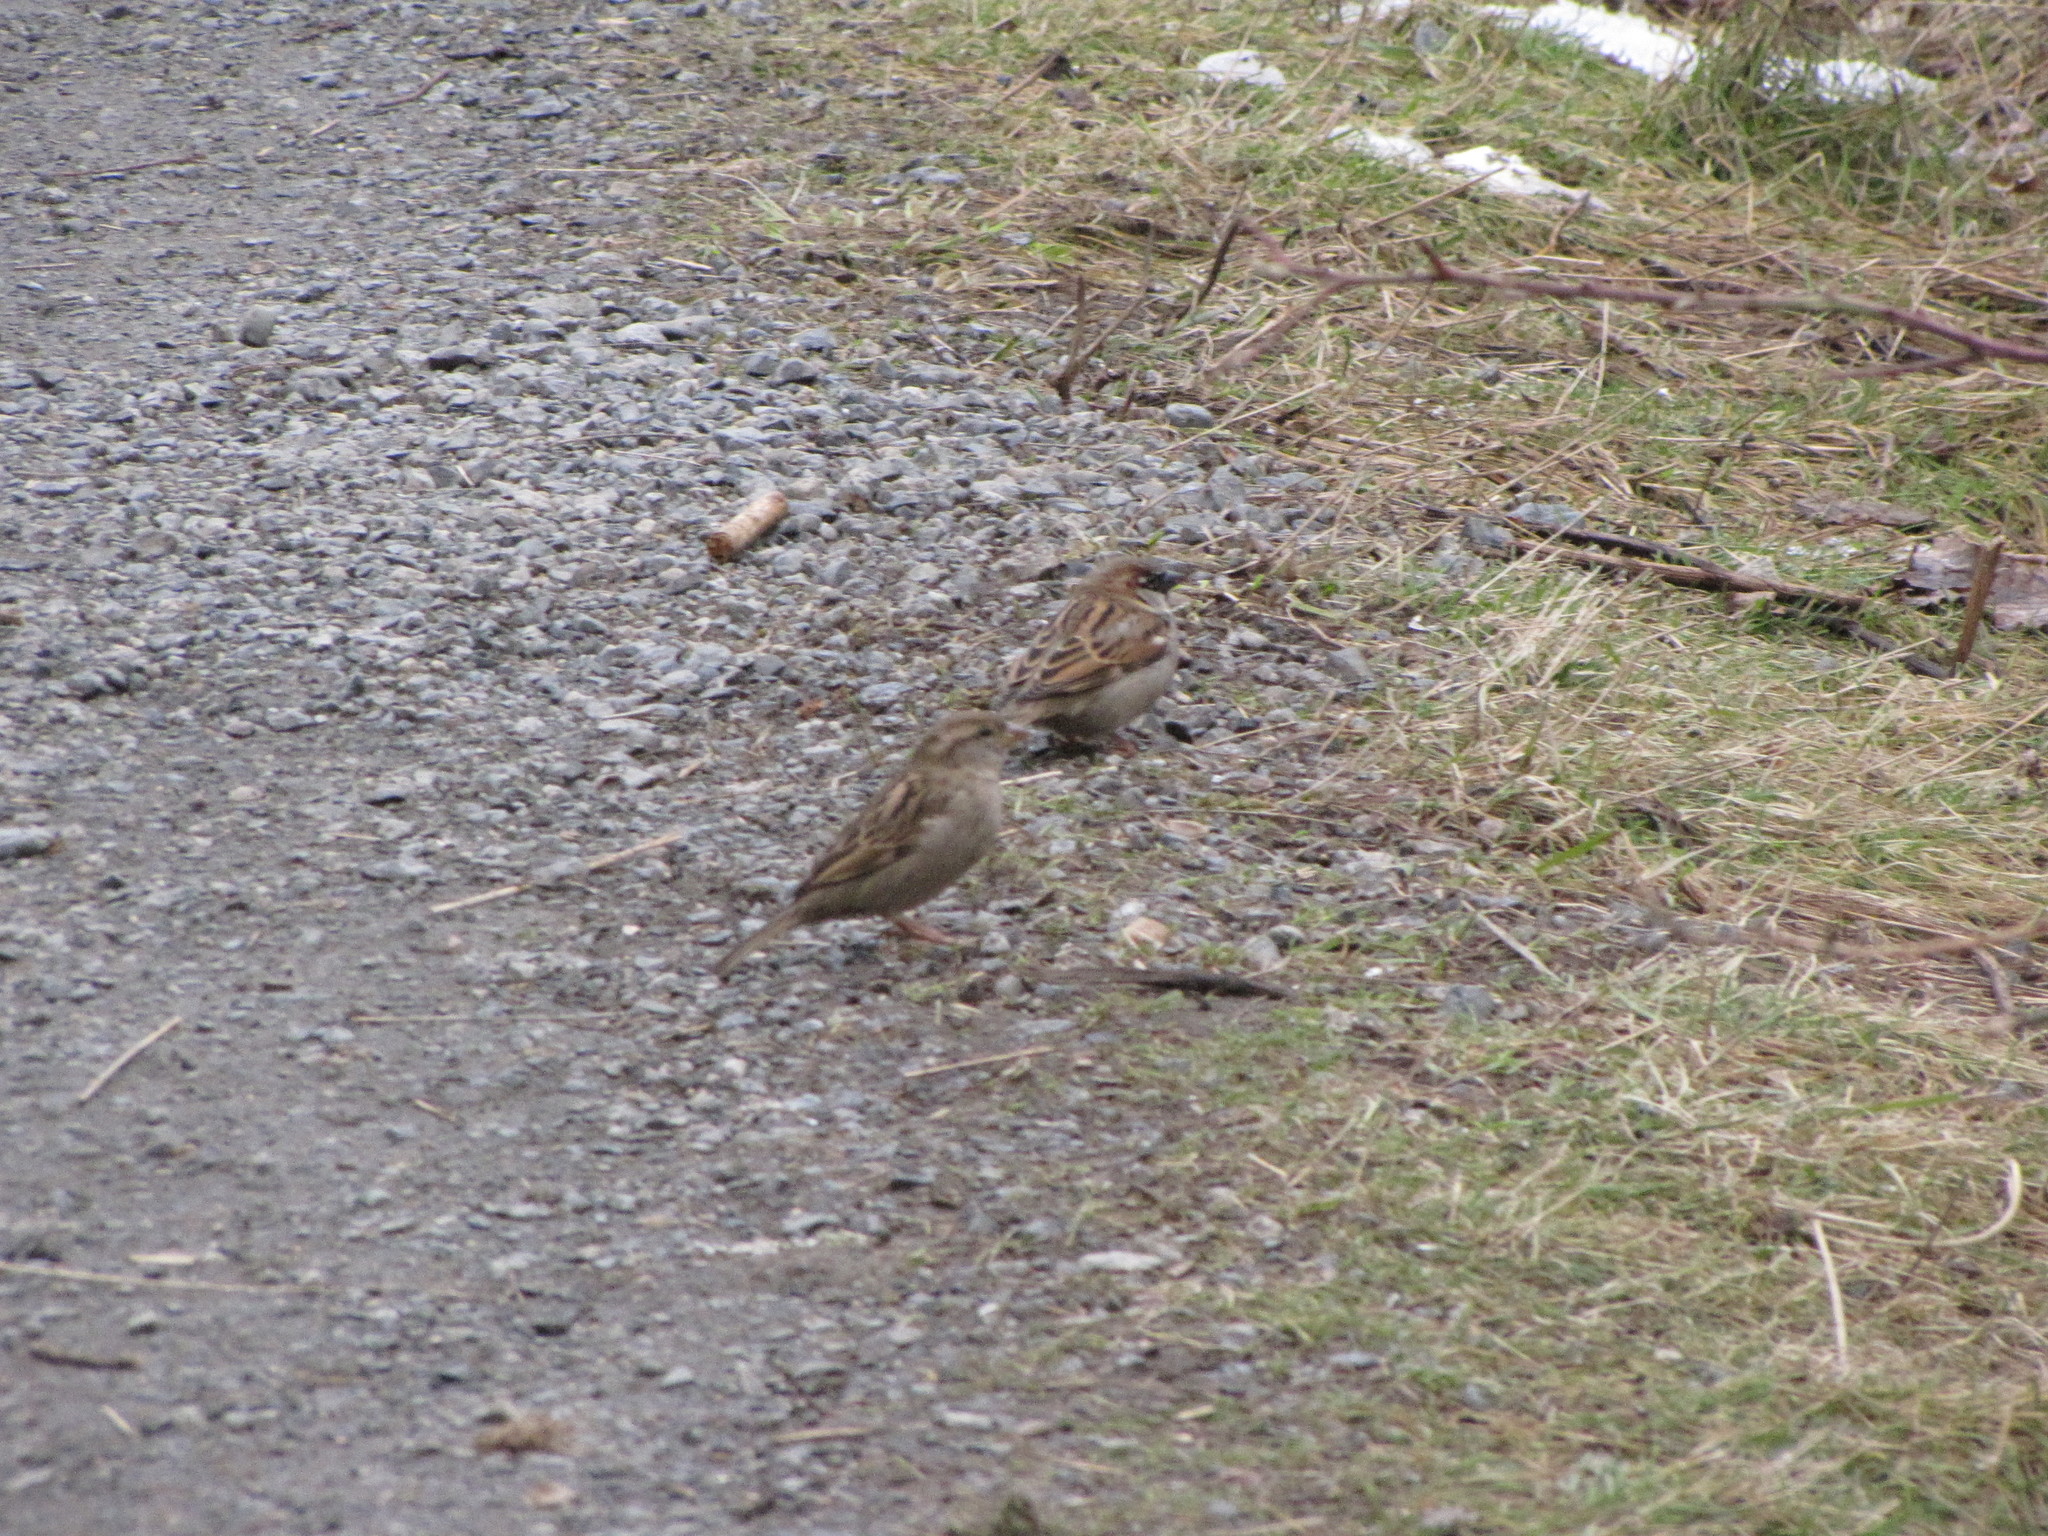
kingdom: Animalia
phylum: Chordata
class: Aves
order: Passeriformes
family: Passeridae
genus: Passer
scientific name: Passer domesticus
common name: House sparrow
